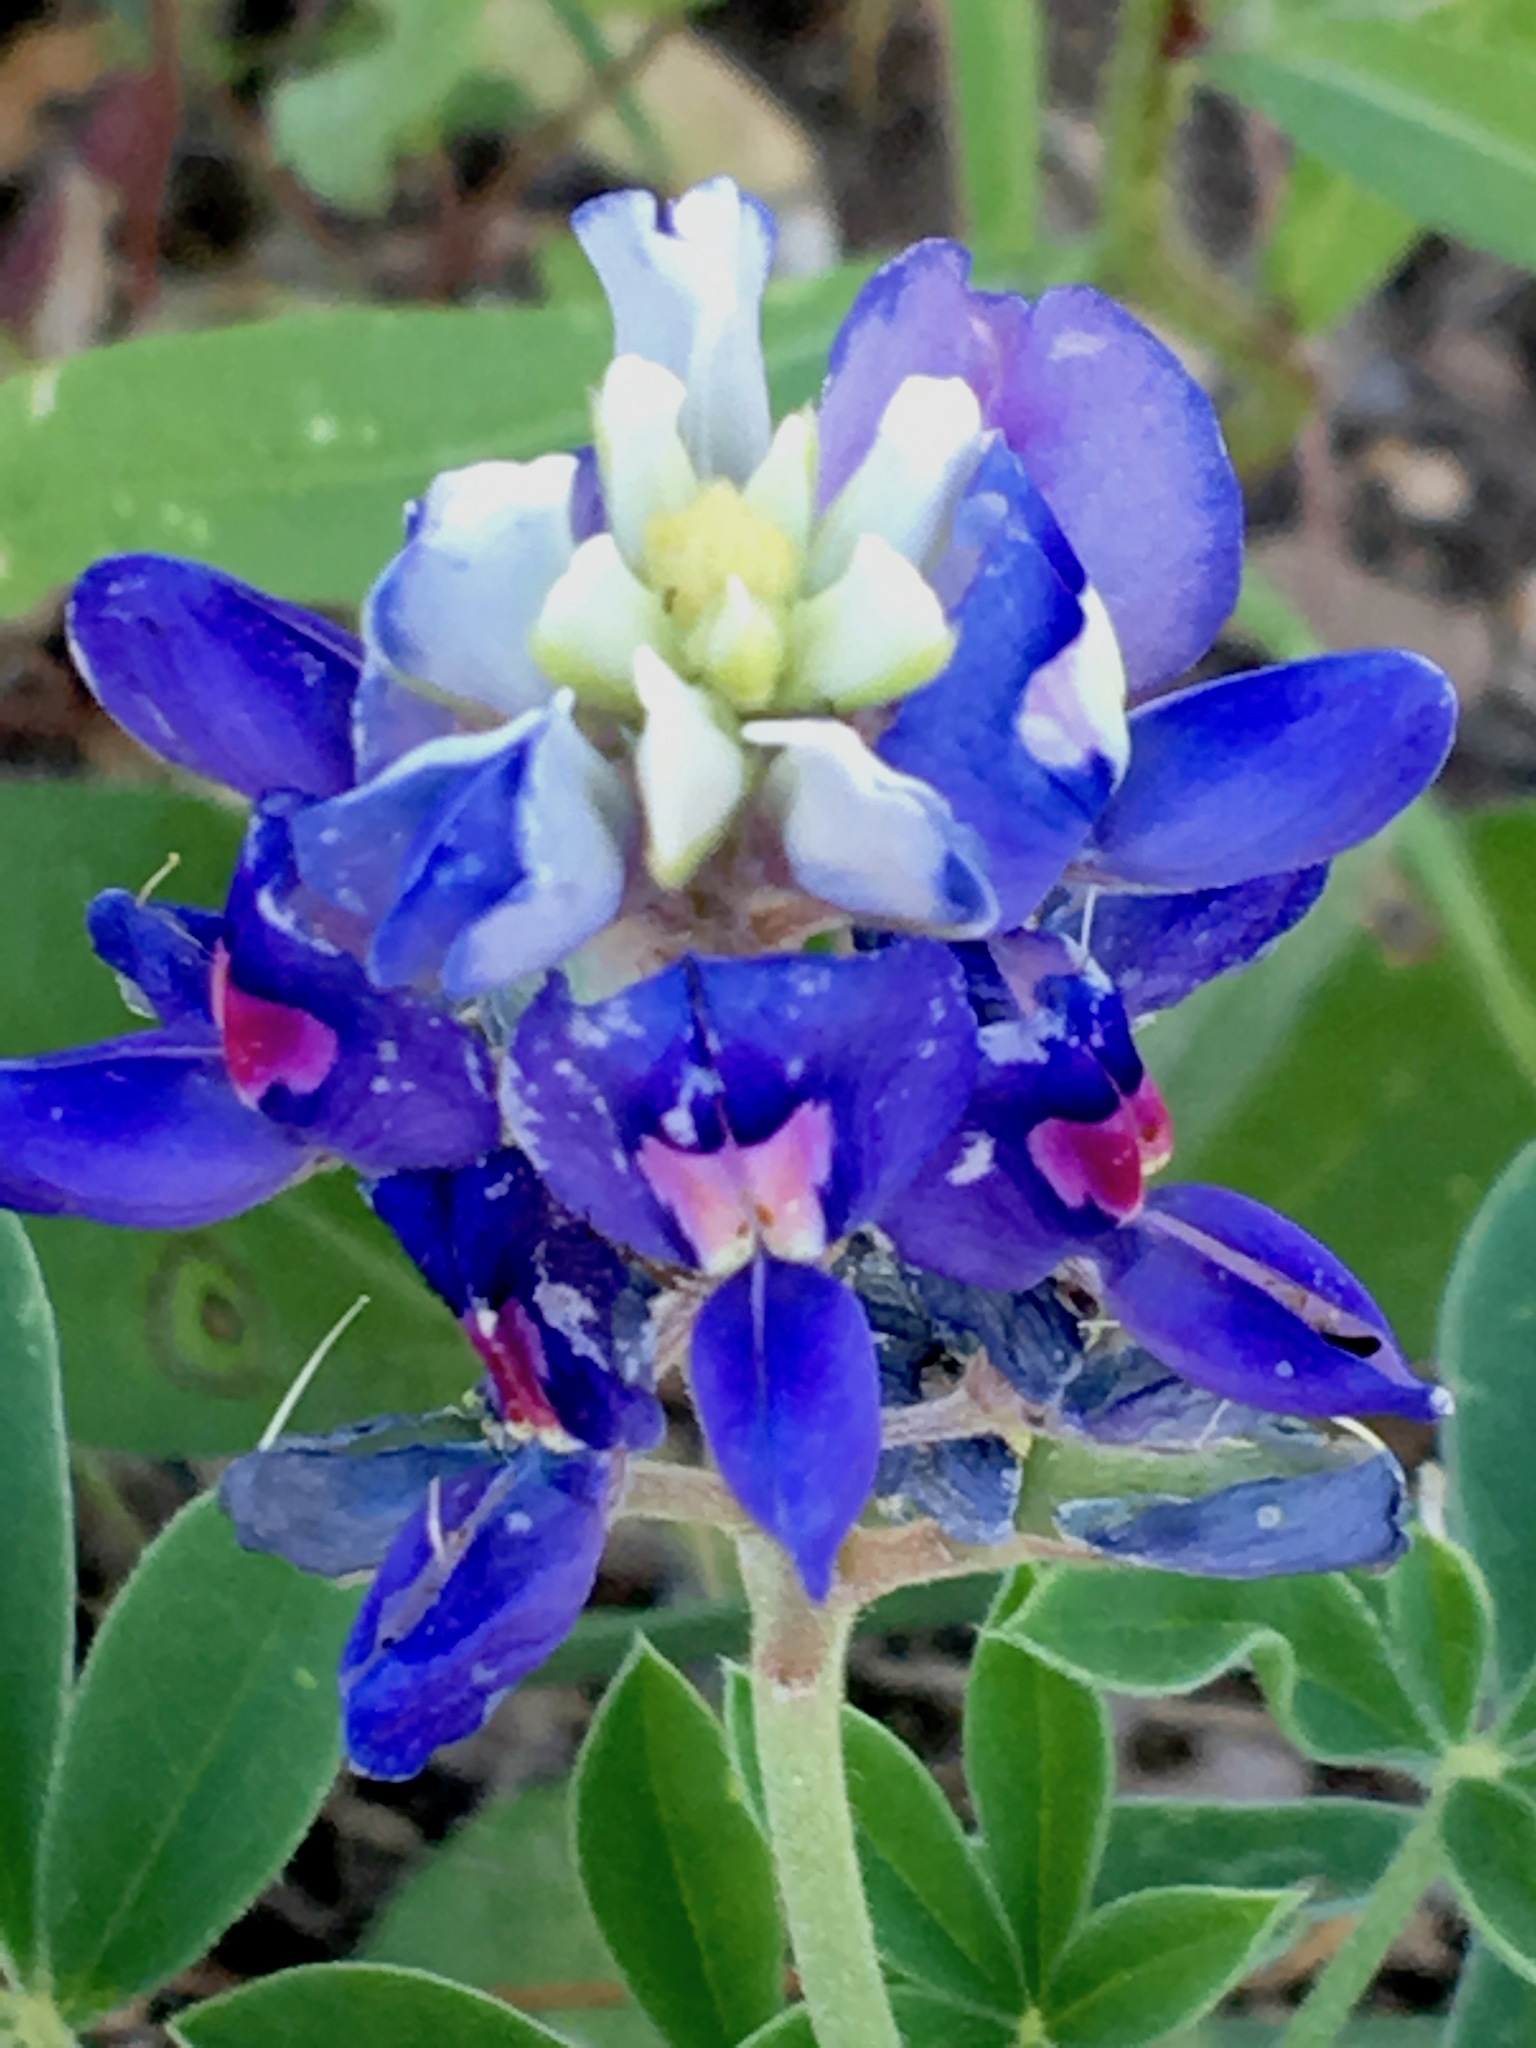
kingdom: Plantae
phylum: Tracheophyta
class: Magnoliopsida
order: Fabales
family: Fabaceae
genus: Lupinus
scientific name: Lupinus texensis
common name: Texas bluebonnet
